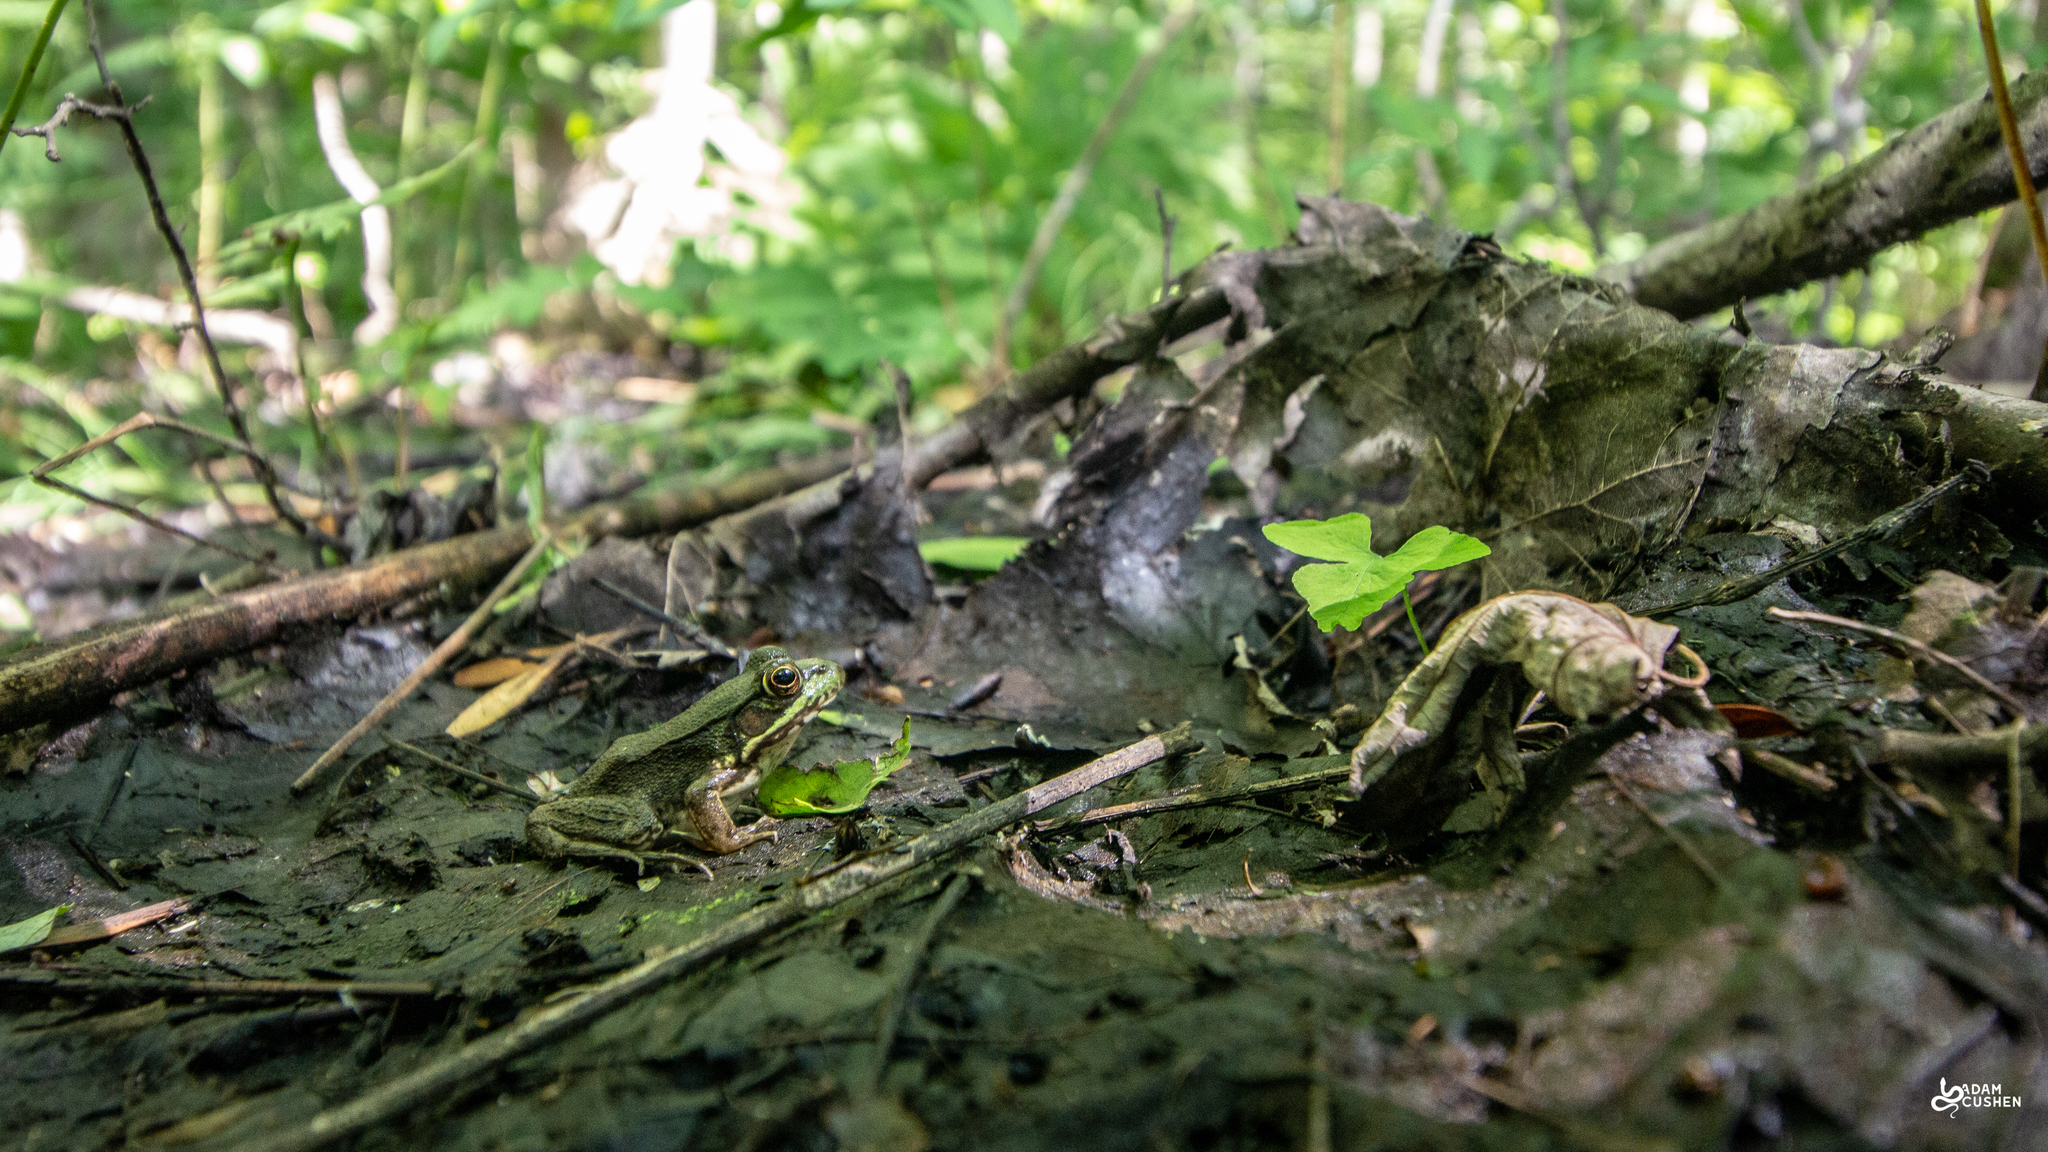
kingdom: Animalia
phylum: Chordata
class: Amphibia
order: Anura
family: Ranidae
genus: Lithobates
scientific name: Lithobates clamitans
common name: Green frog
